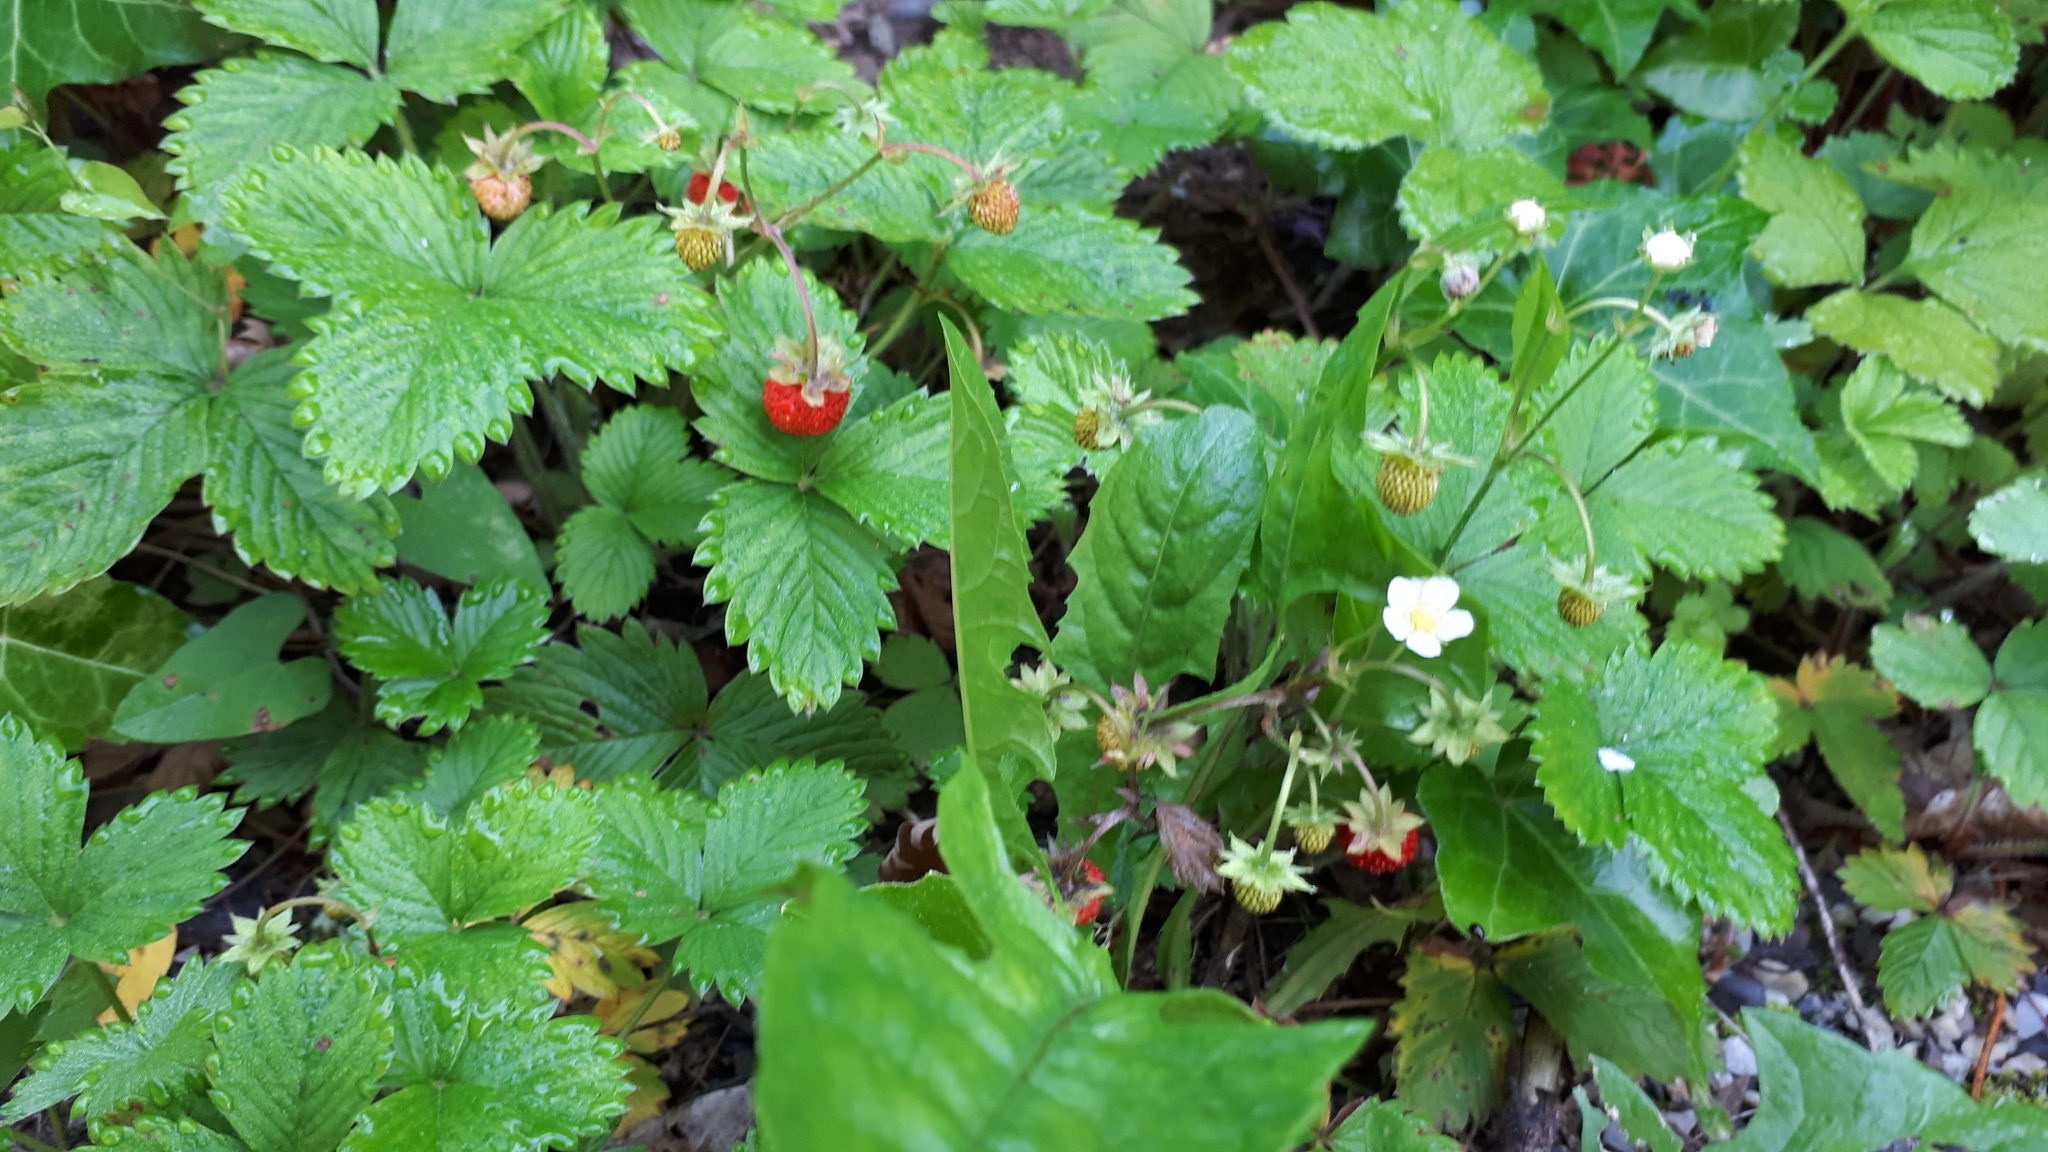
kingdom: Plantae
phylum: Tracheophyta
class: Magnoliopsida
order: Rosales
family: Rosaceae
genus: Fragaria
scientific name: Fragaria vesca
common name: Wild strawberry
